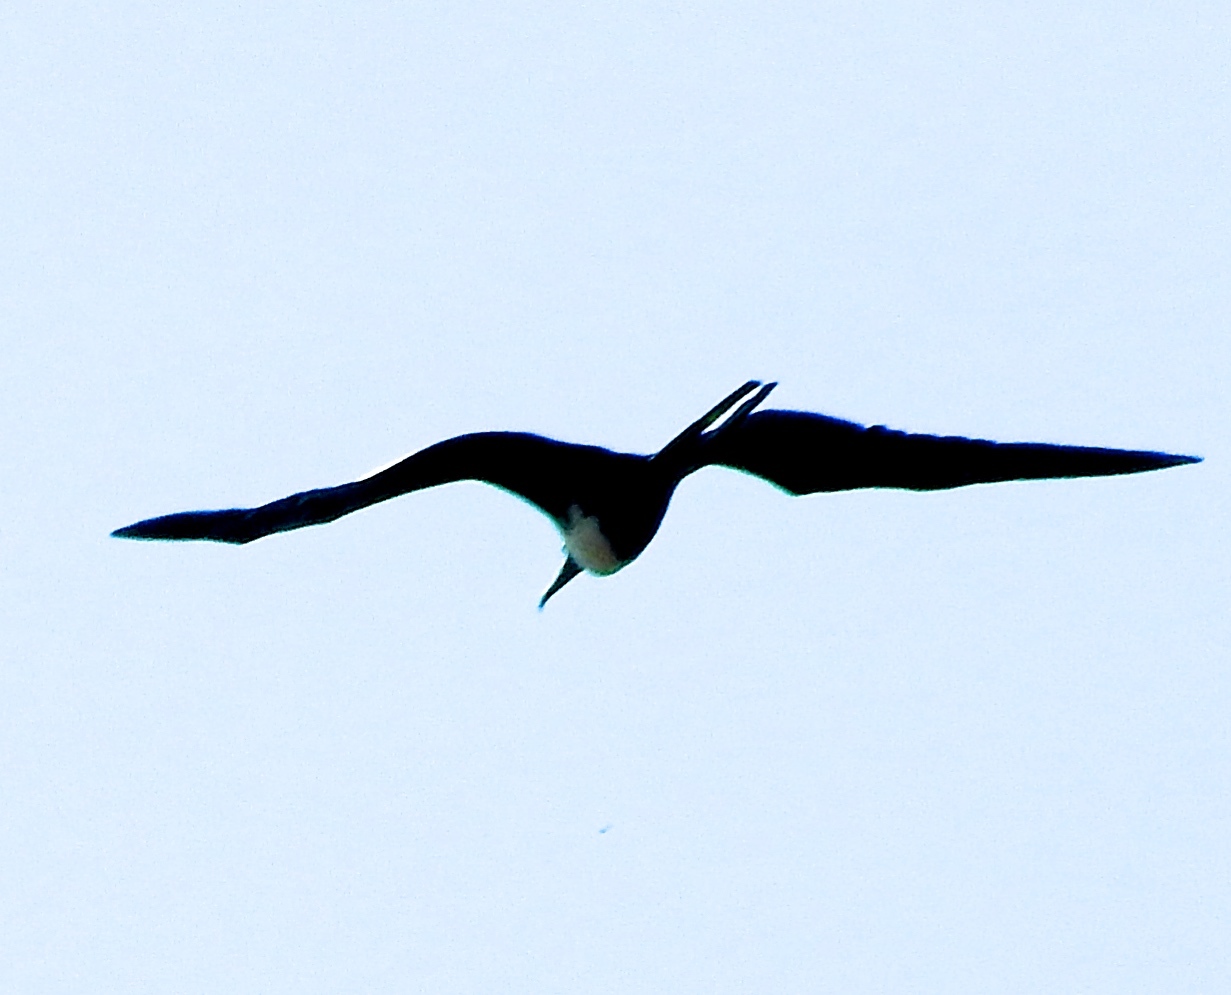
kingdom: Animalia
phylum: Chordata
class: Aves
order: Suliformes
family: Fregatidae
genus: Fregata
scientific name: Fregata magnificens
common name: Magnificent frigatebird
